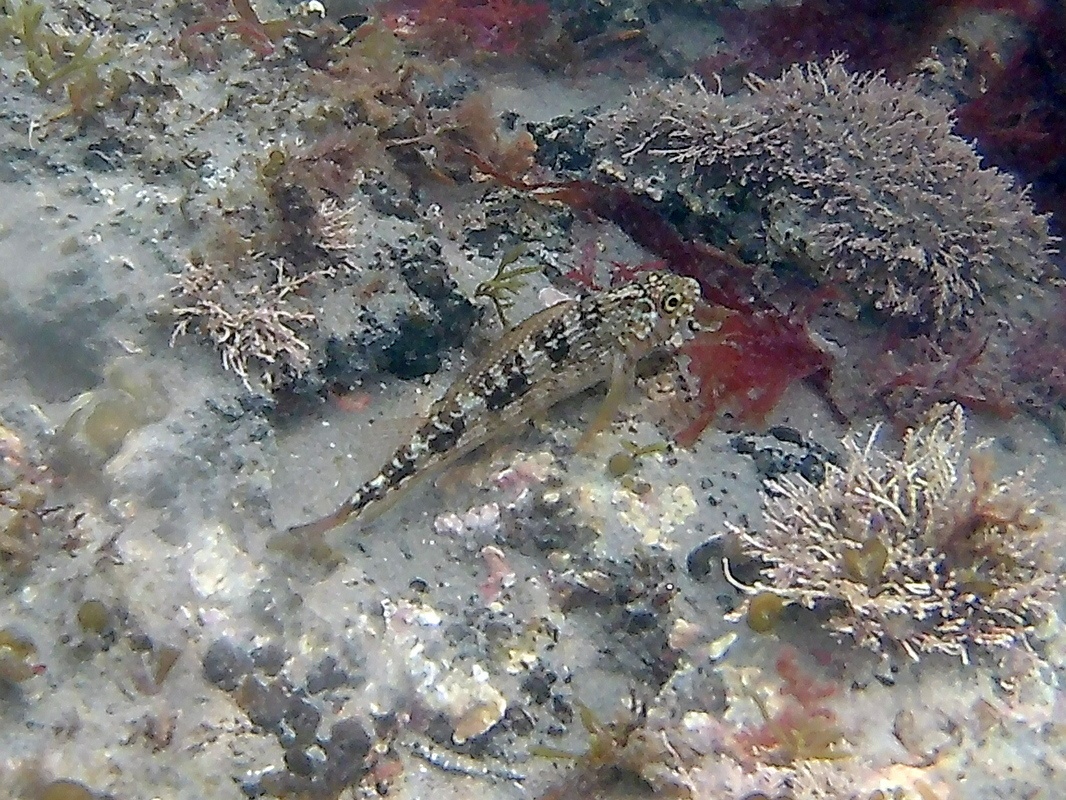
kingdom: Animalia
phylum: Chordata
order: Perciformes
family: Tripterygiidae
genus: Forsterygion
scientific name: Forsterygion varium
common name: Variable triplefin
